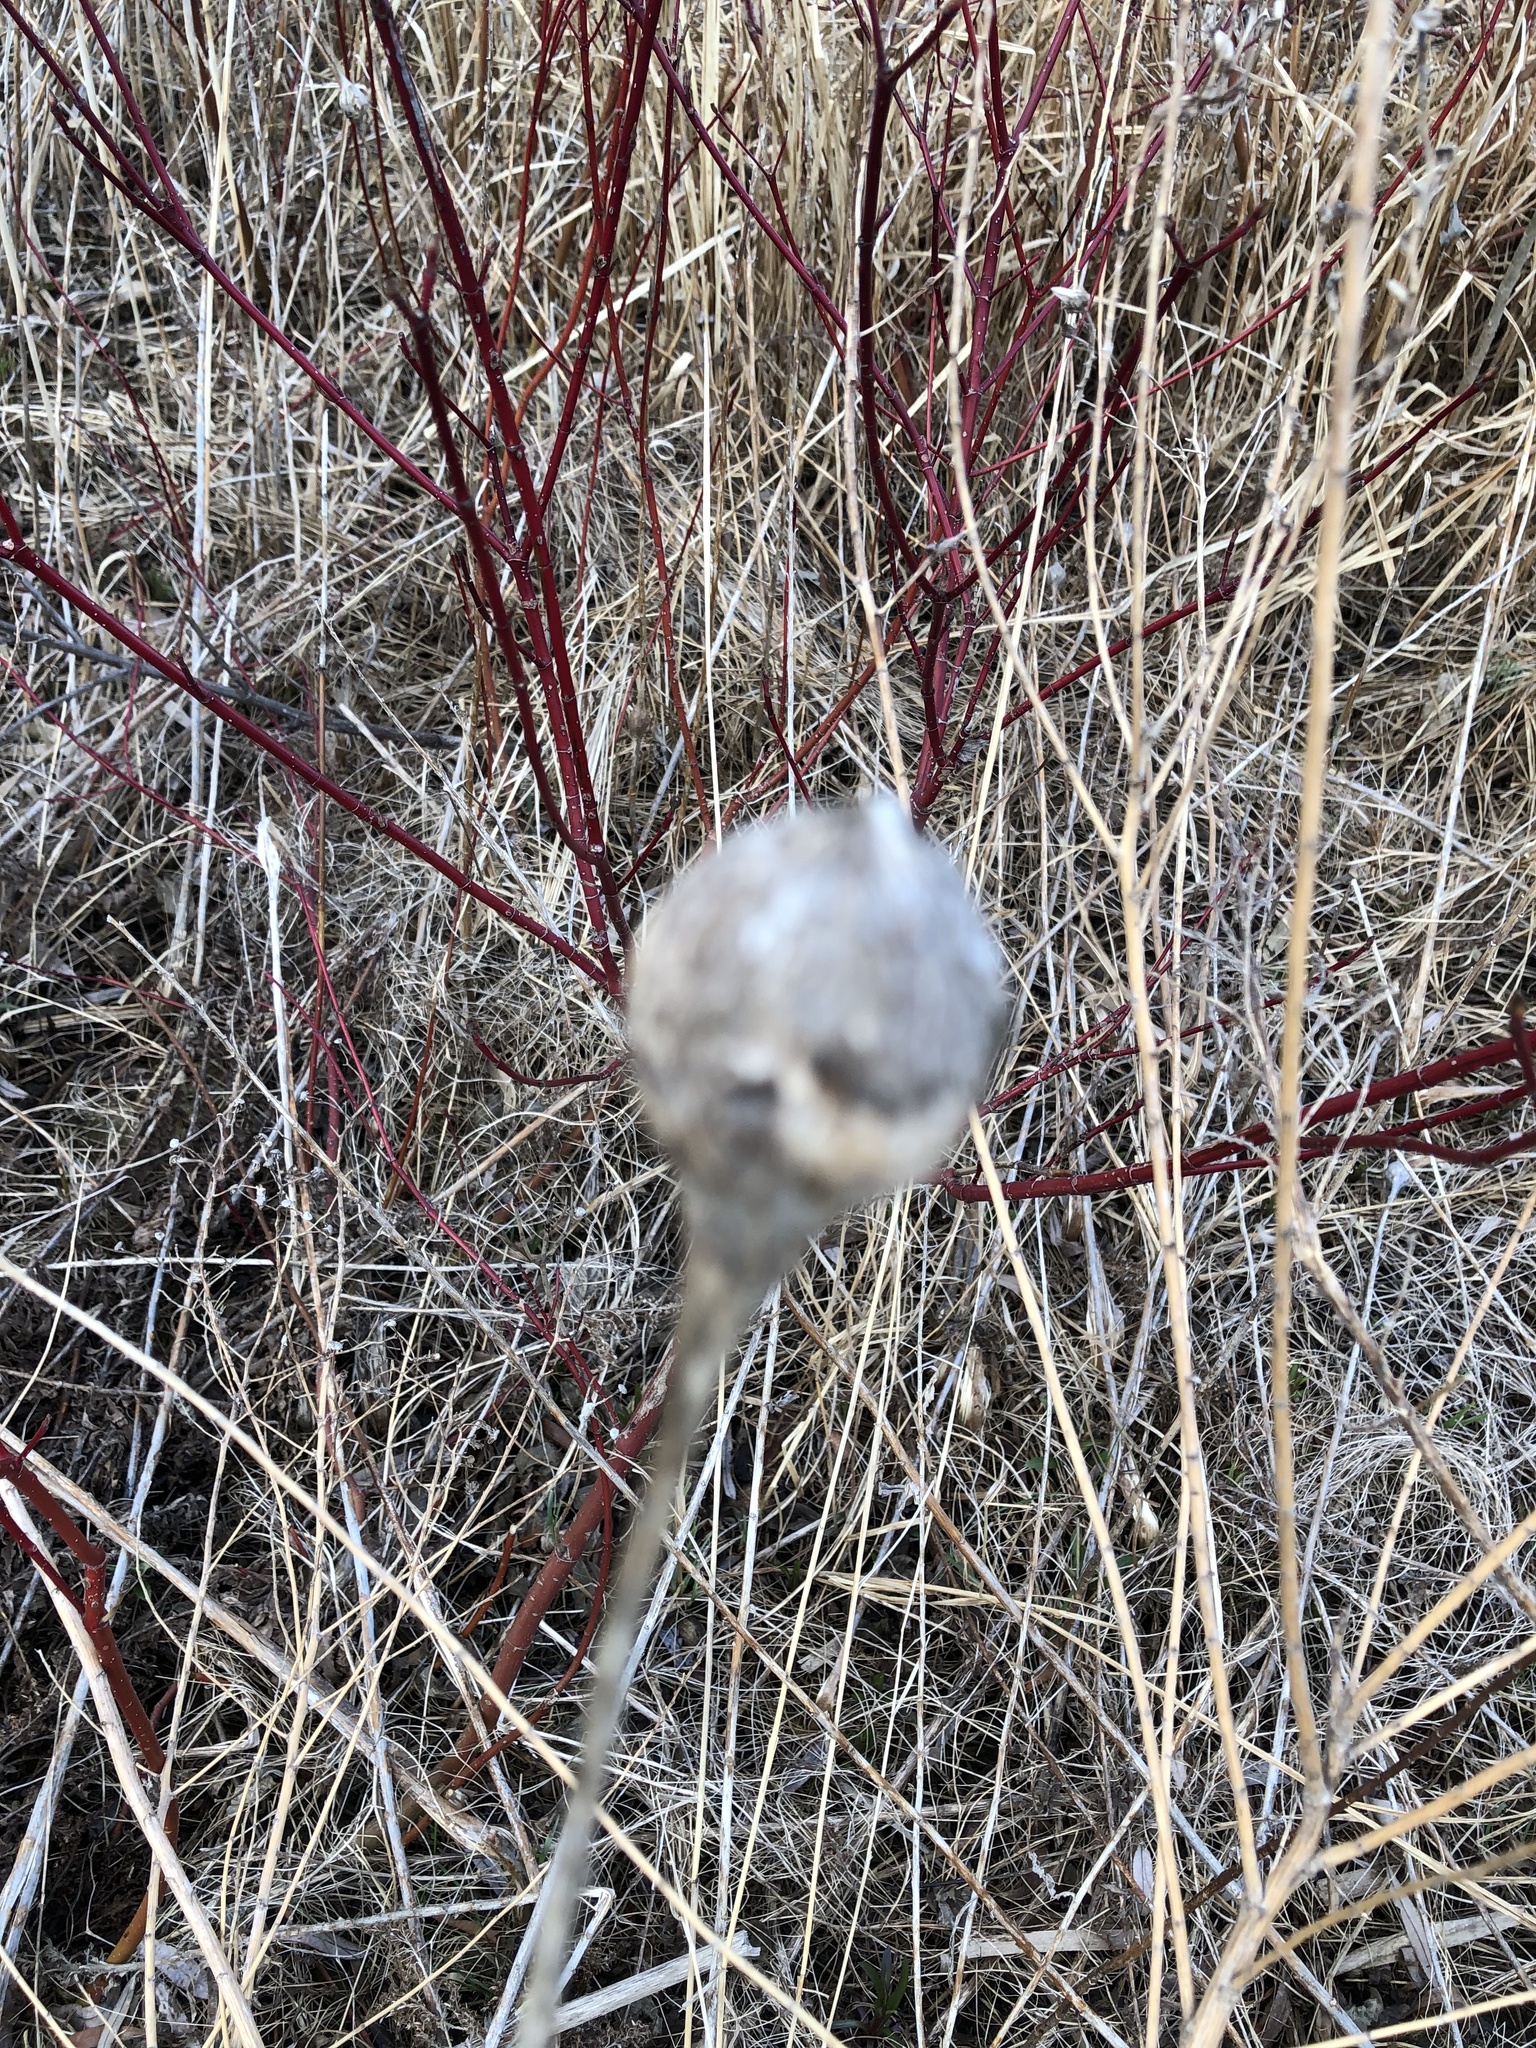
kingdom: Animalia
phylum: Arthropoda
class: Insecta
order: Diptera
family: Tephritidae
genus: Eurosta
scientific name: Eurosta solidaginis
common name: Goldenrod gall fly
